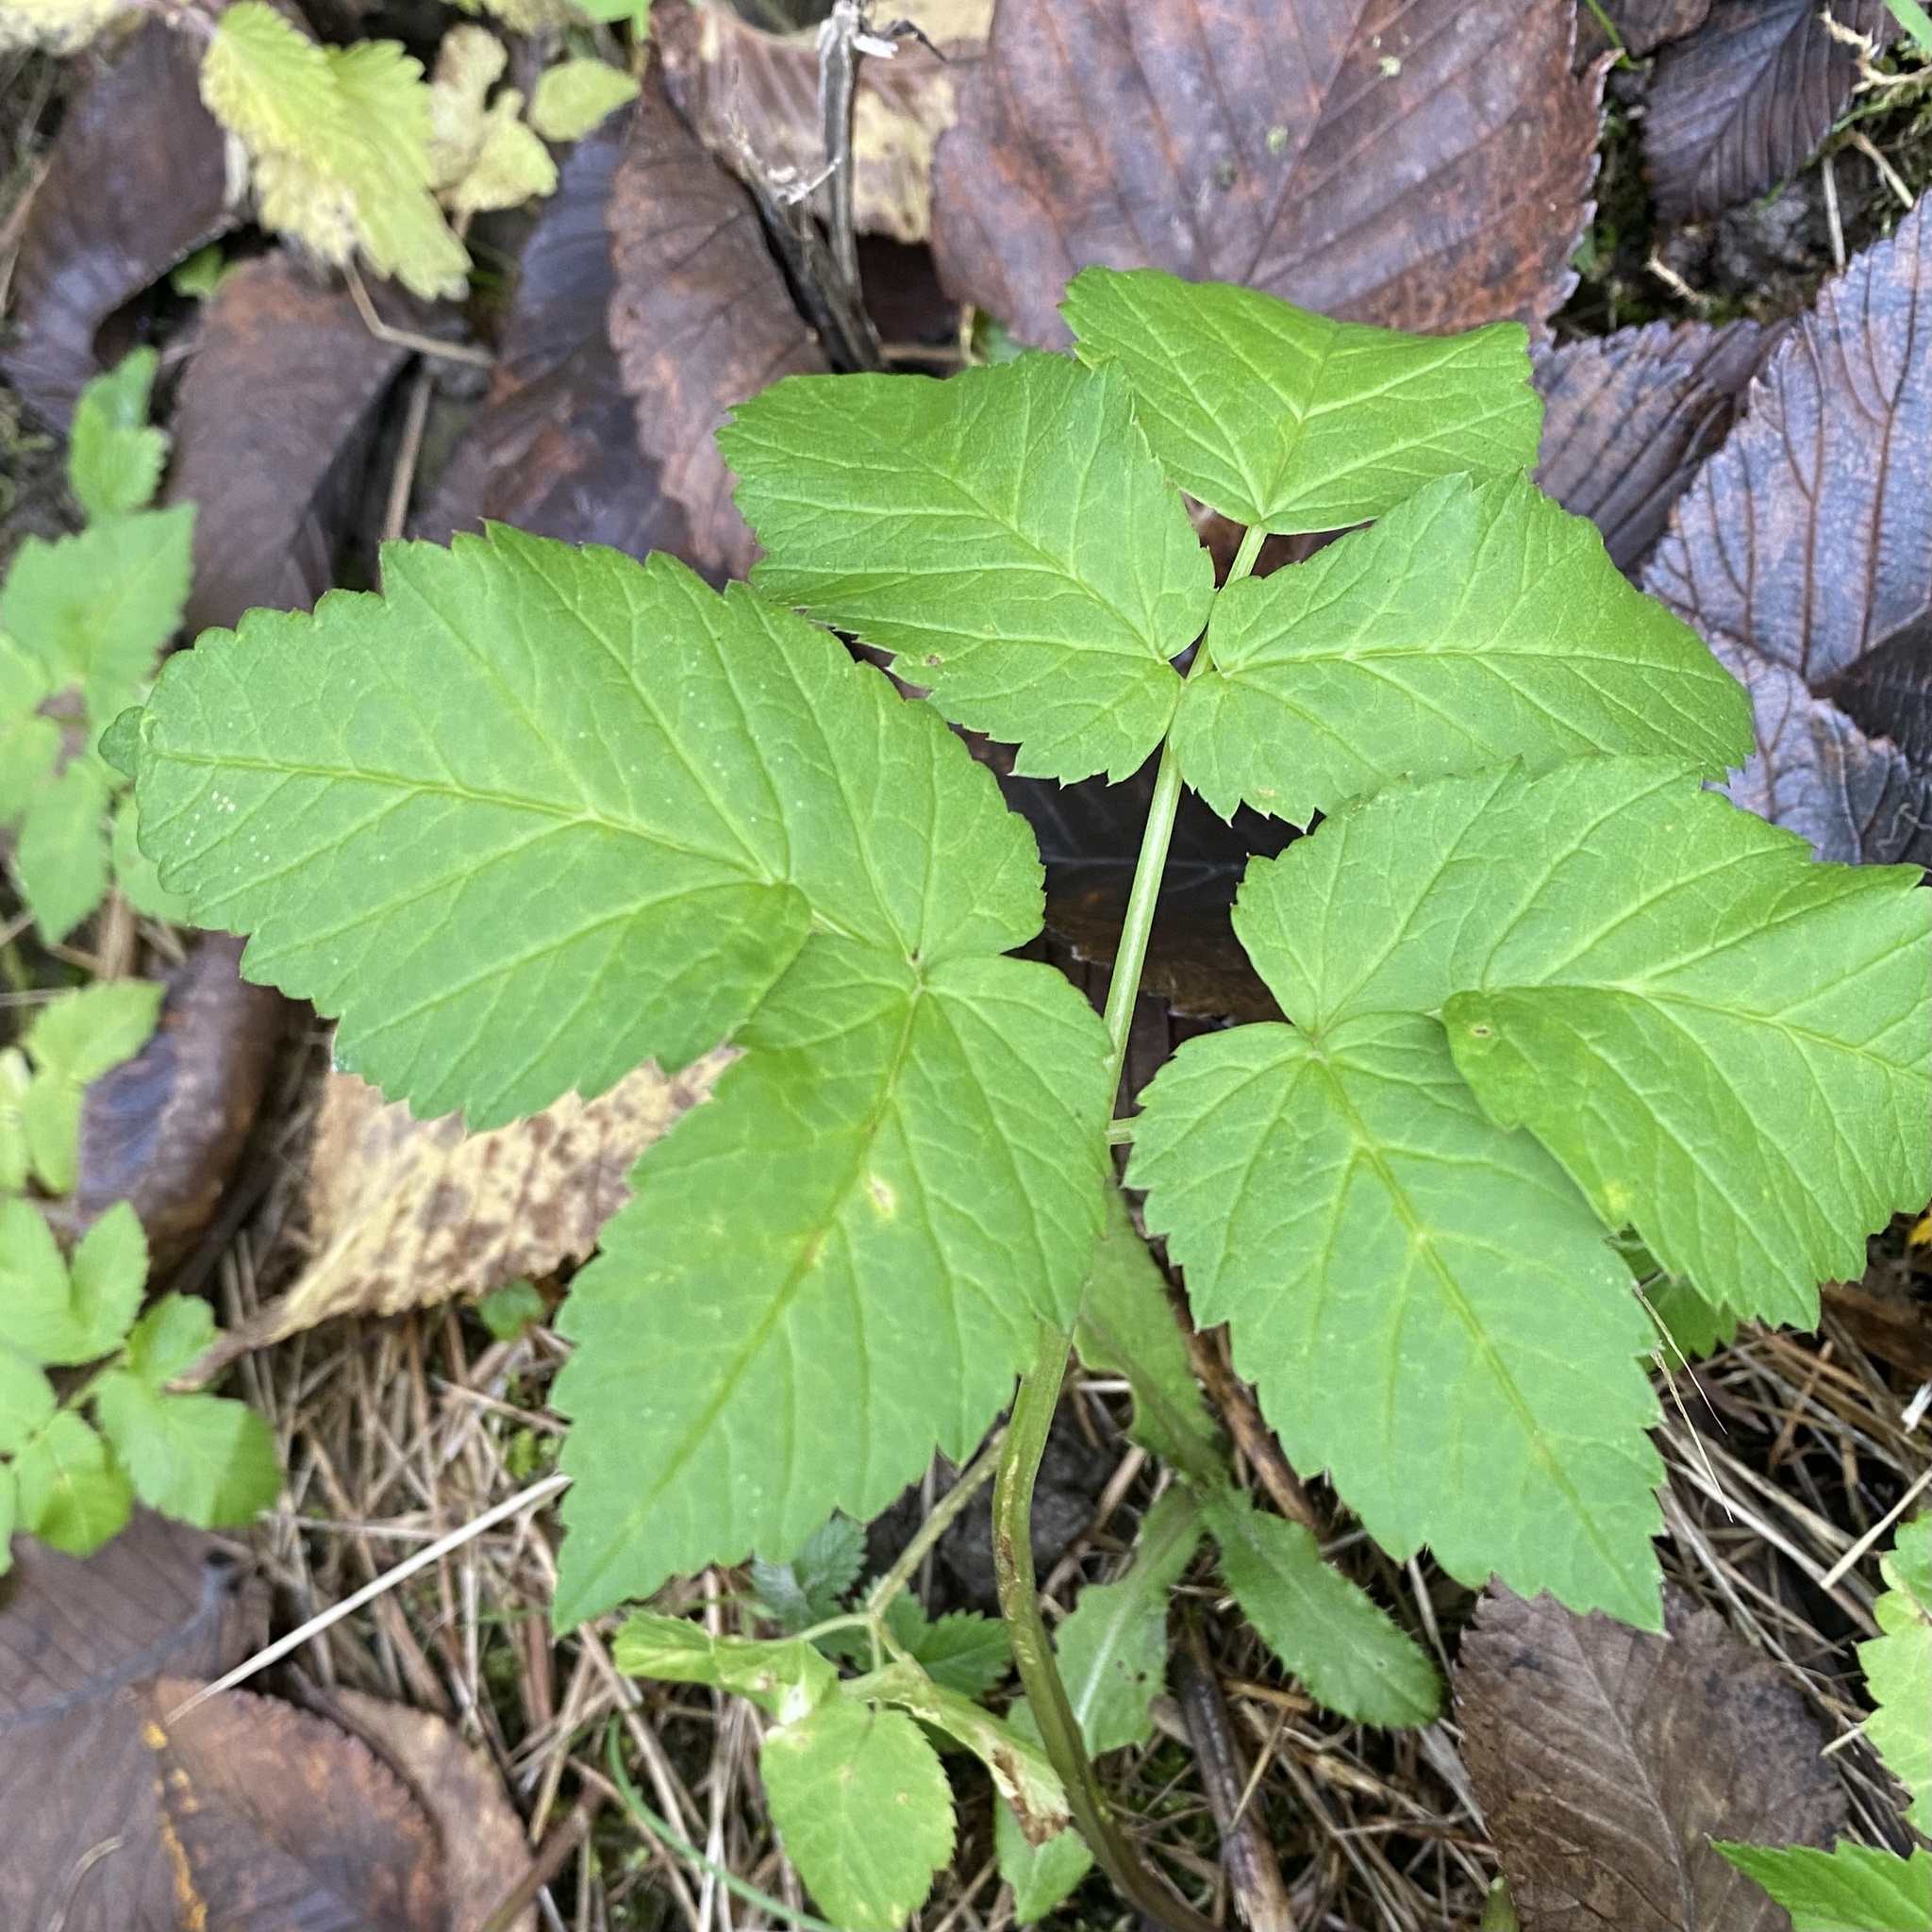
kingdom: Plantae
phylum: Tracheophyta
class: Magnoliopsida
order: Apiales
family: Apiaceae
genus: Aegopodium
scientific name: Aegopodium podagraria
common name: Ground-elder
